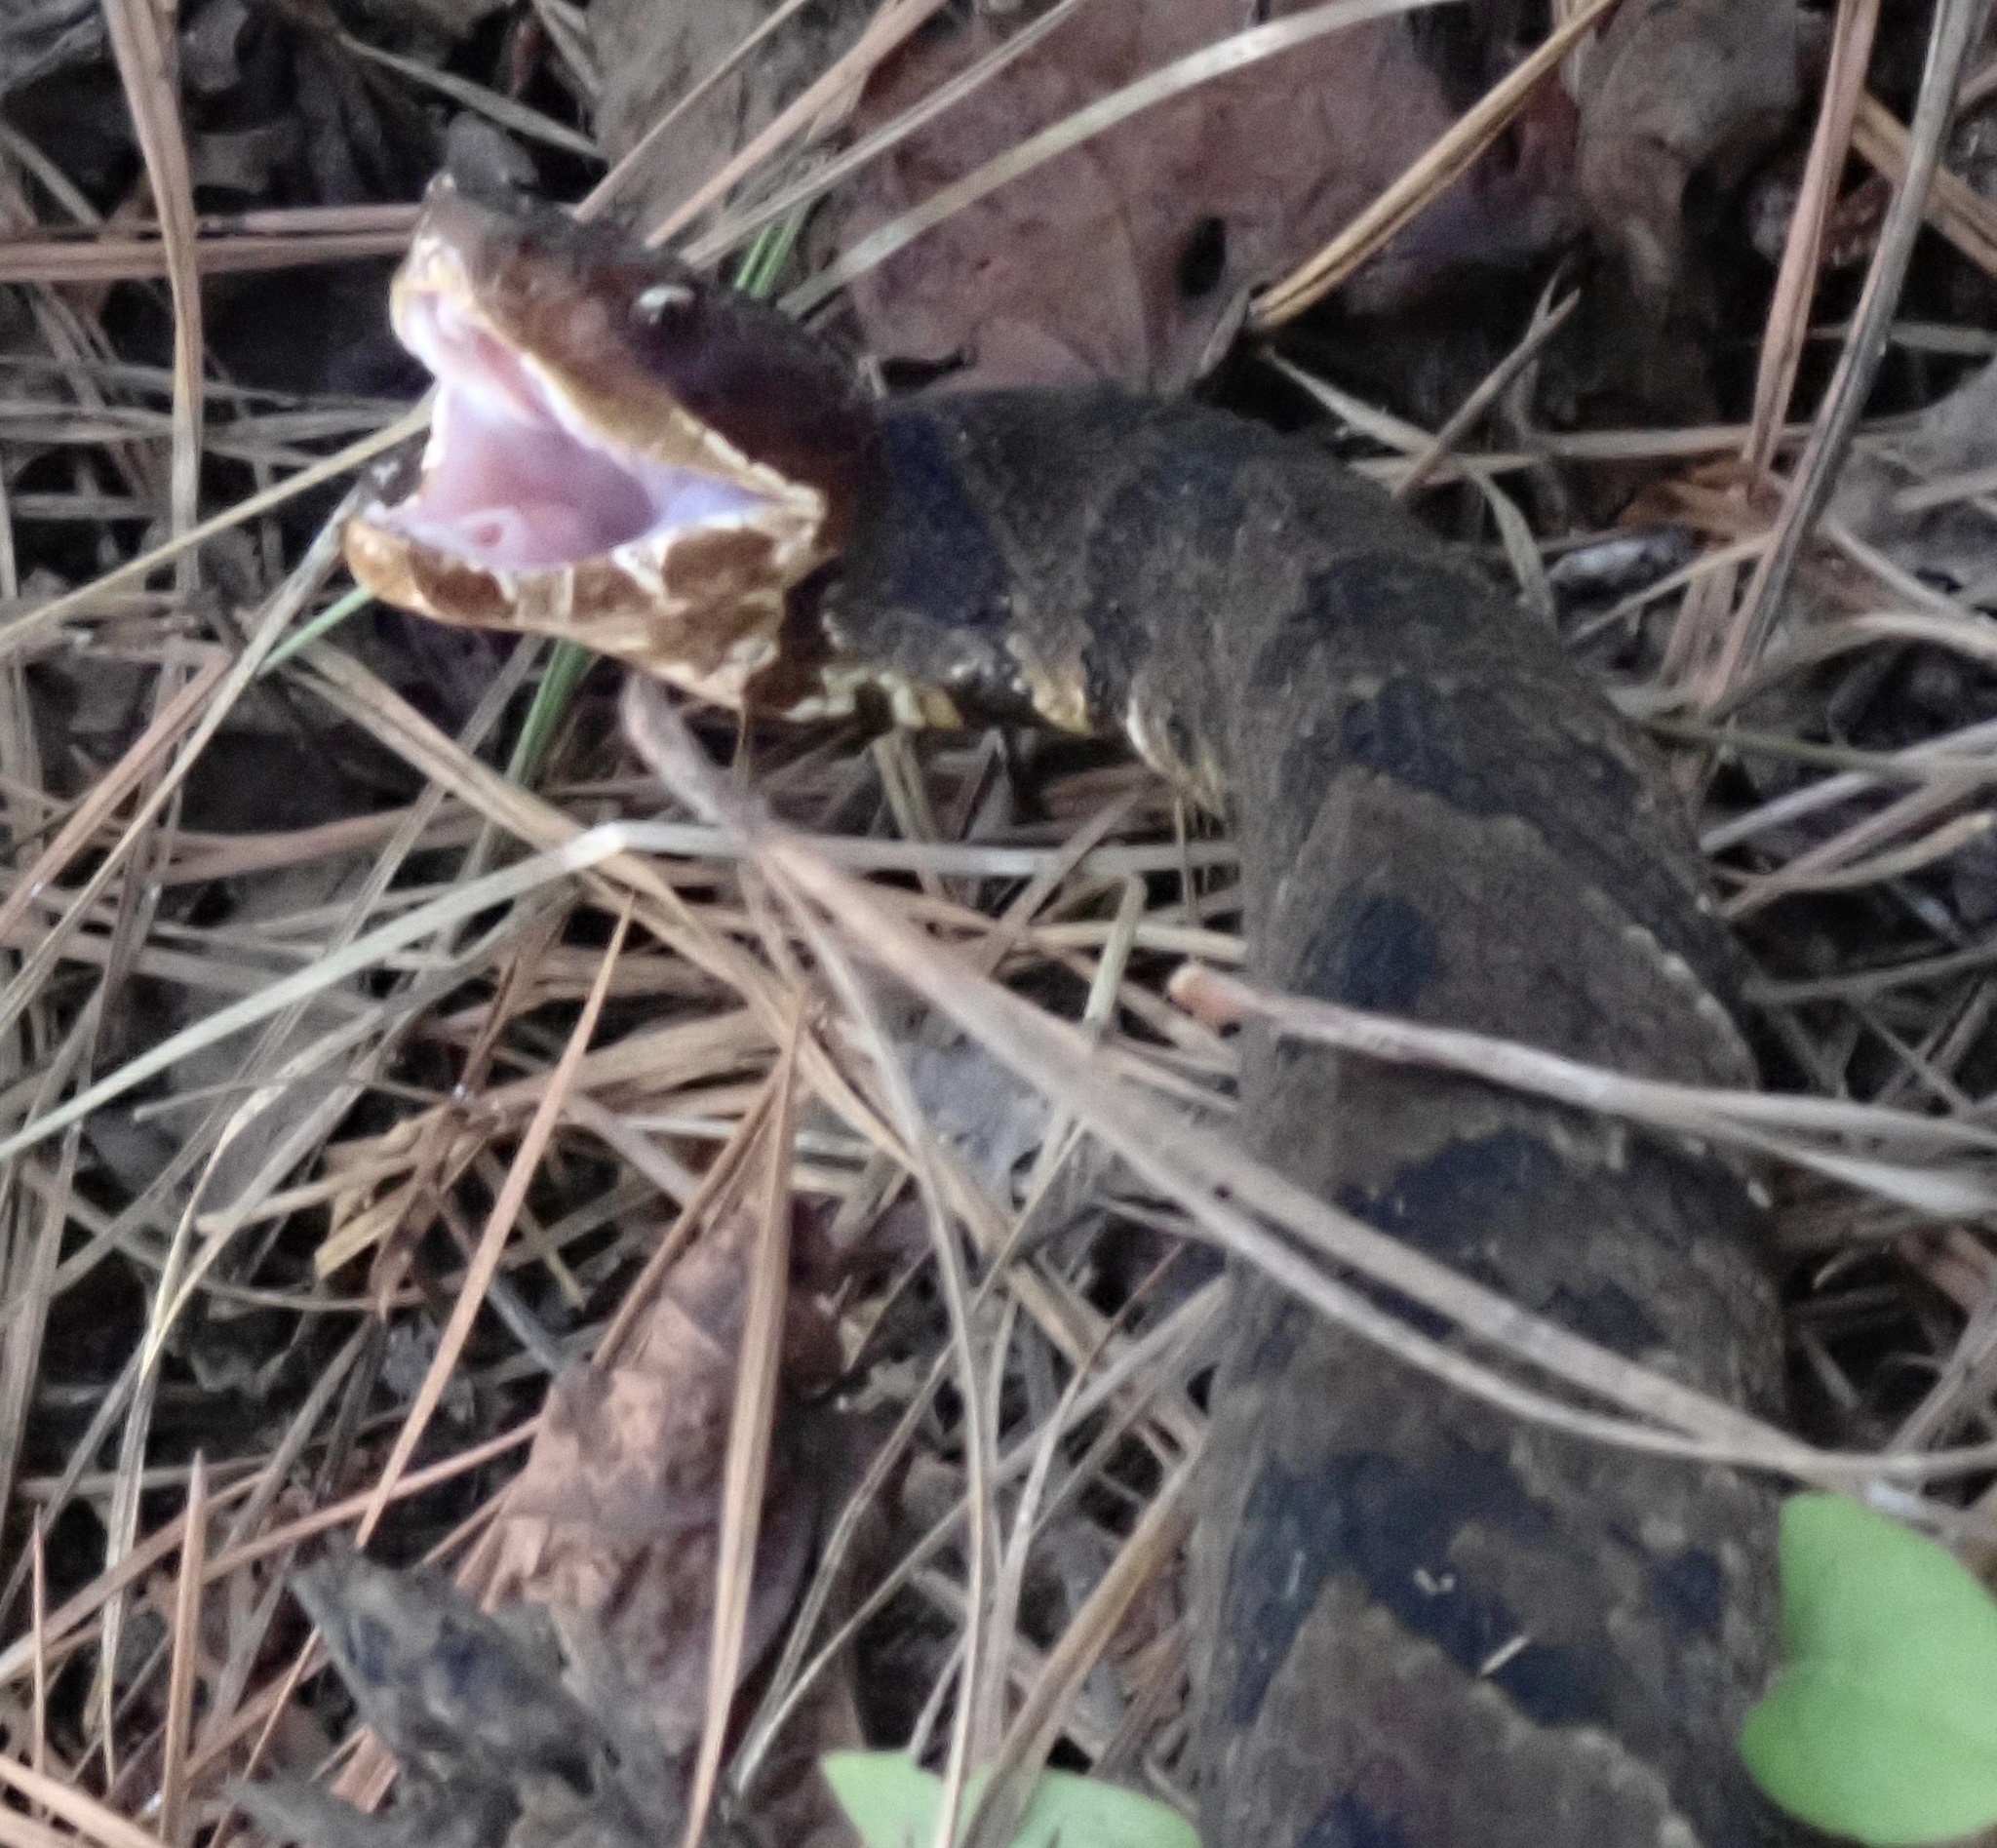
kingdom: Animalia
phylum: Chordata
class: Squamata
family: Viperidae
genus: Agkistrodon
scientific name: Agkistrodon piscivorus
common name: Cottonmouth
